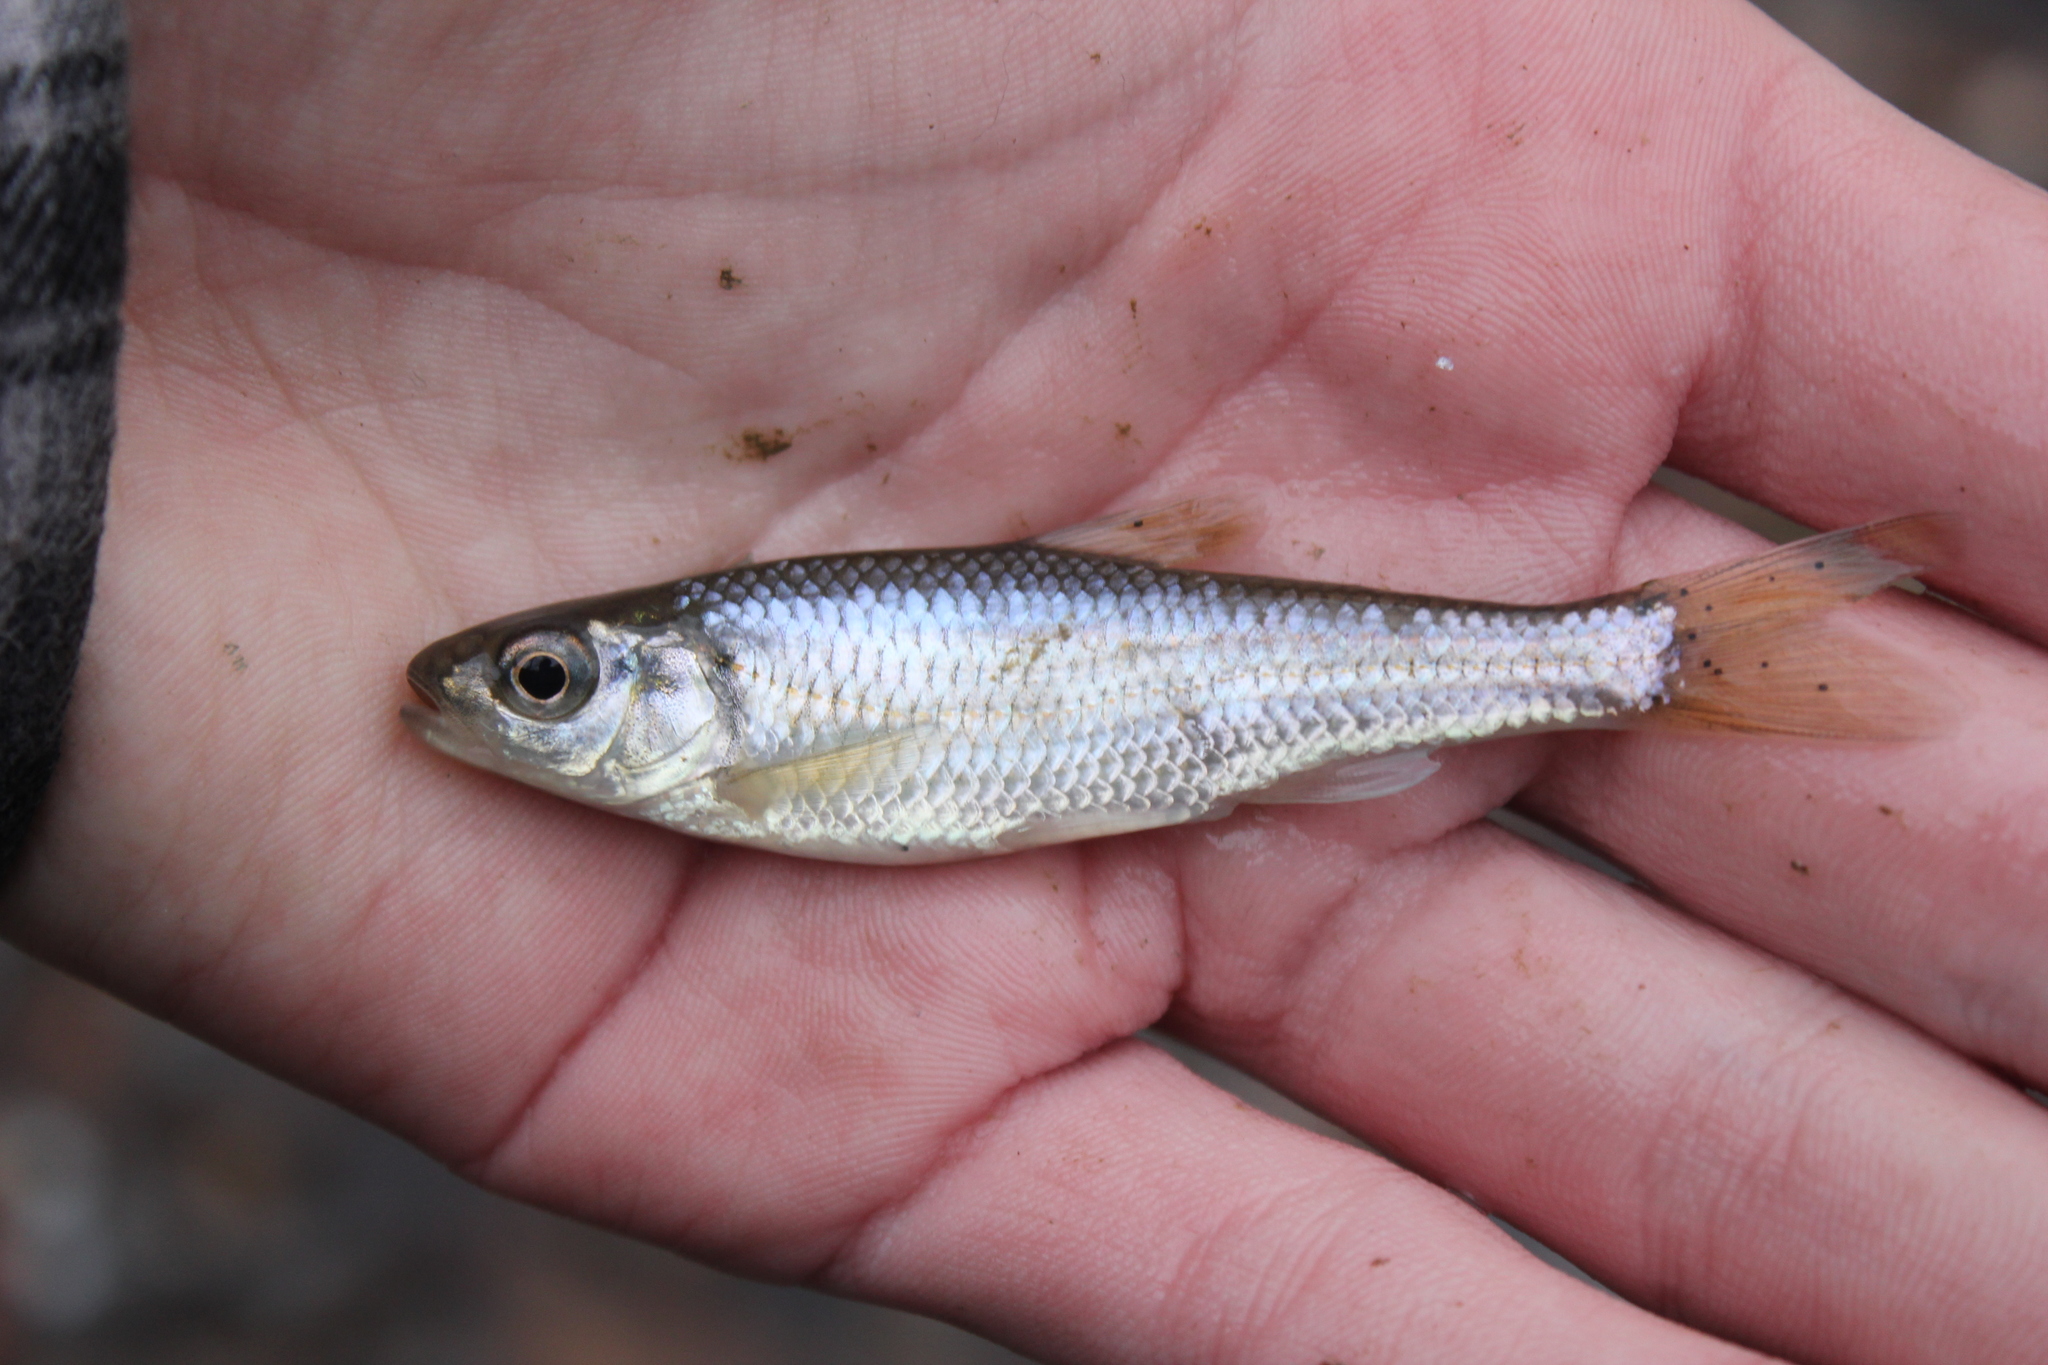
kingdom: Animalia
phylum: Chordata
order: Cypriniformes
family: Cyprinidae
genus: Luxilus
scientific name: Luxilus chrysocephalus
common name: Striped shiner
